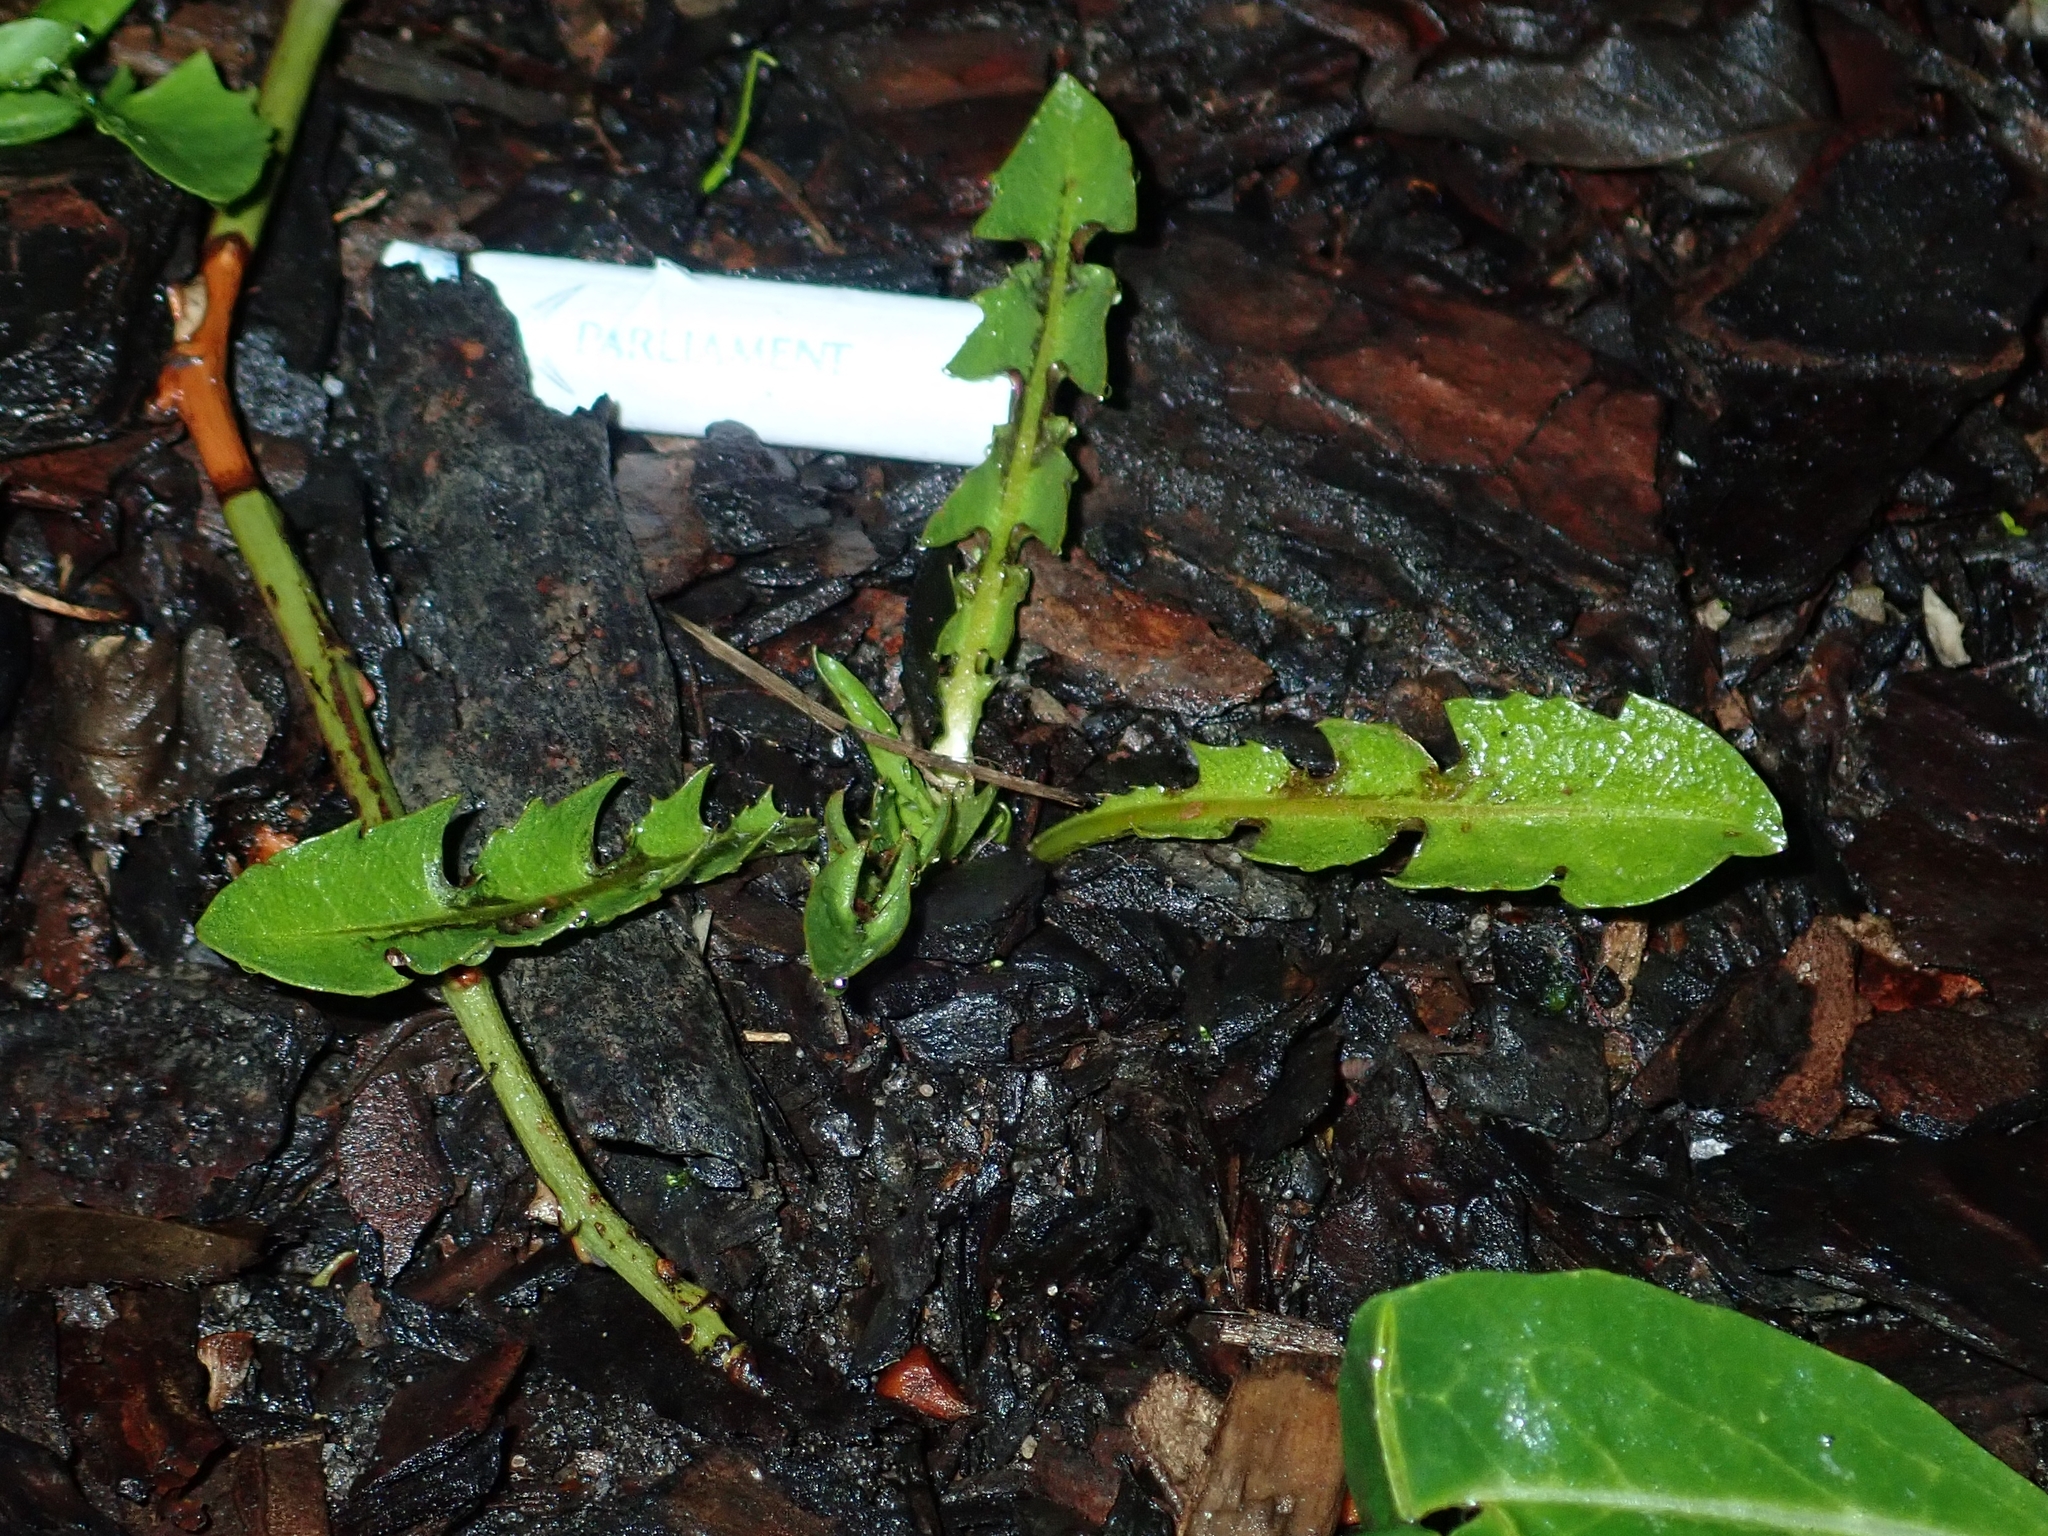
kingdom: Plantae
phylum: Tracheophyta
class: Magnoliopsida
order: Asterales
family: Asteraceae
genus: Taraxacum
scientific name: Taraxacum officinale
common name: Common dandelion
